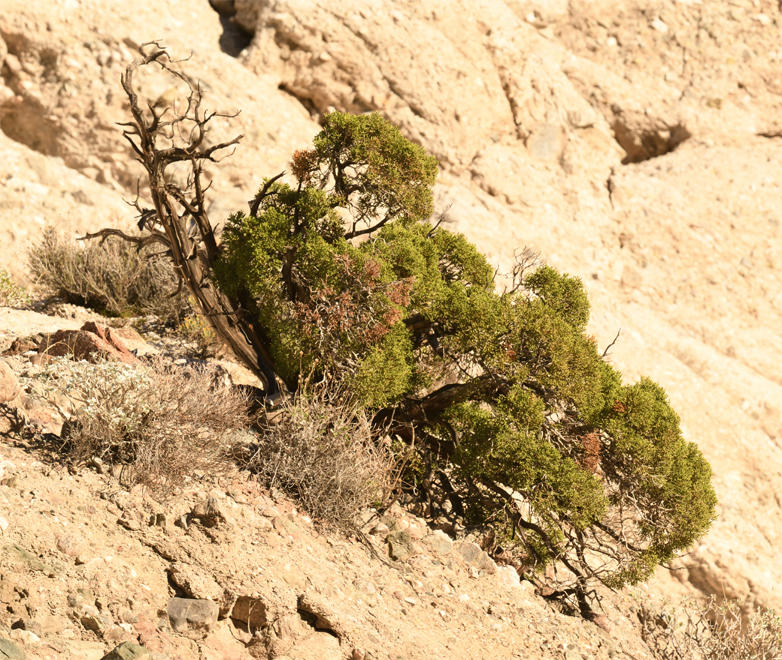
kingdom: Plantae
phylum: Tracheophyta
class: Pinopsida
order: Pinales
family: Cupressaceae
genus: Juniperus
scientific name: Juniperus californica
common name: California juniper
